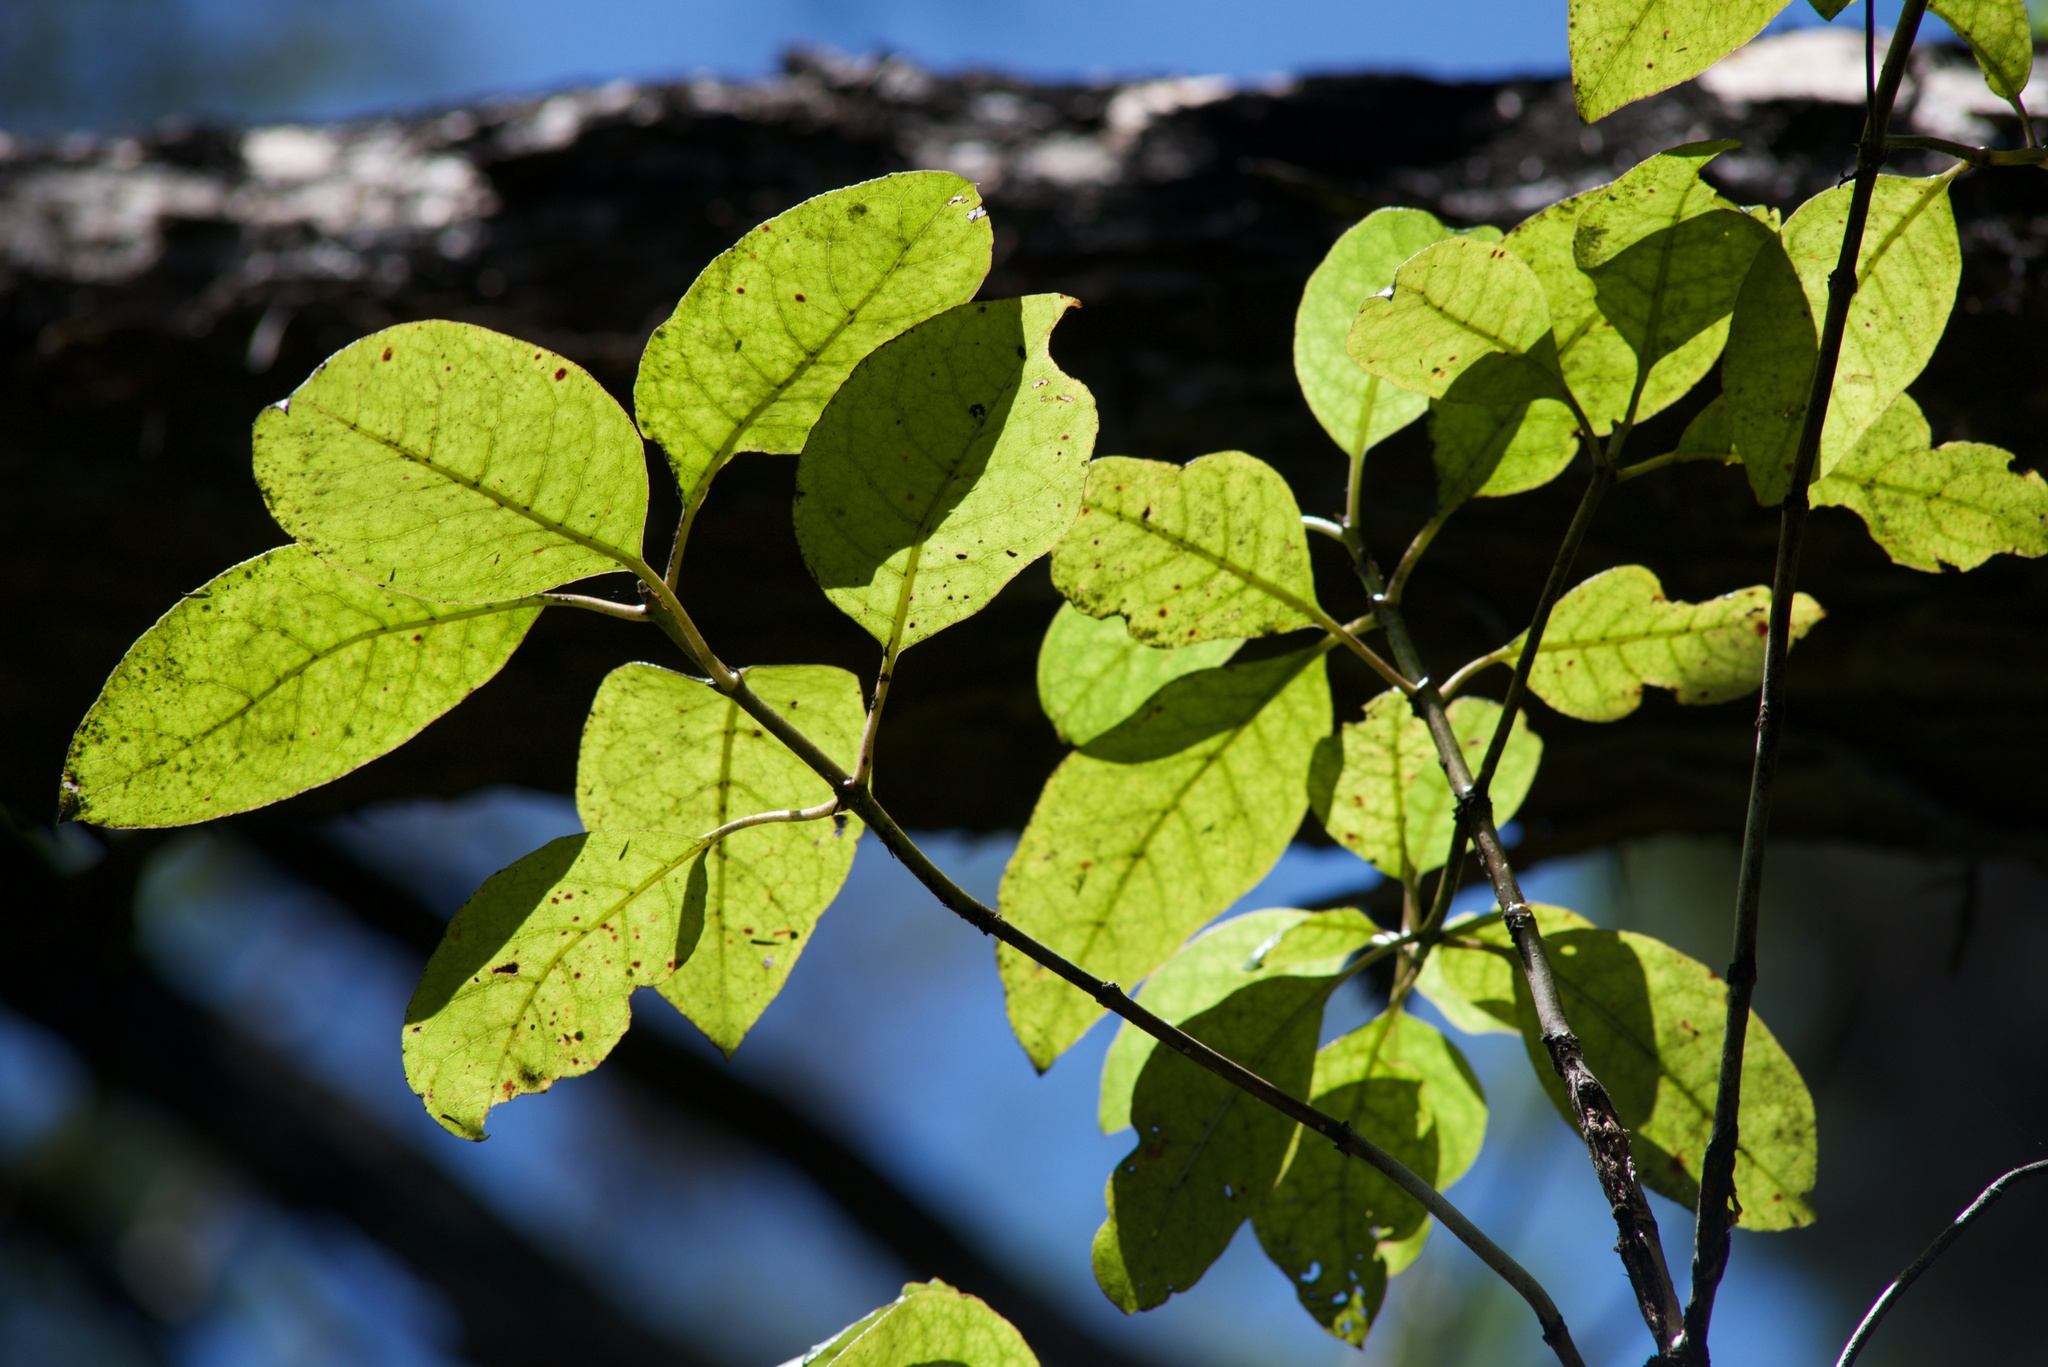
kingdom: Plantae
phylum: Tracheophyta
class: Magnoliopsida
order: Gentianales
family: Rubiaceae
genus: Coprosma
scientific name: Coprosma autumnalis
